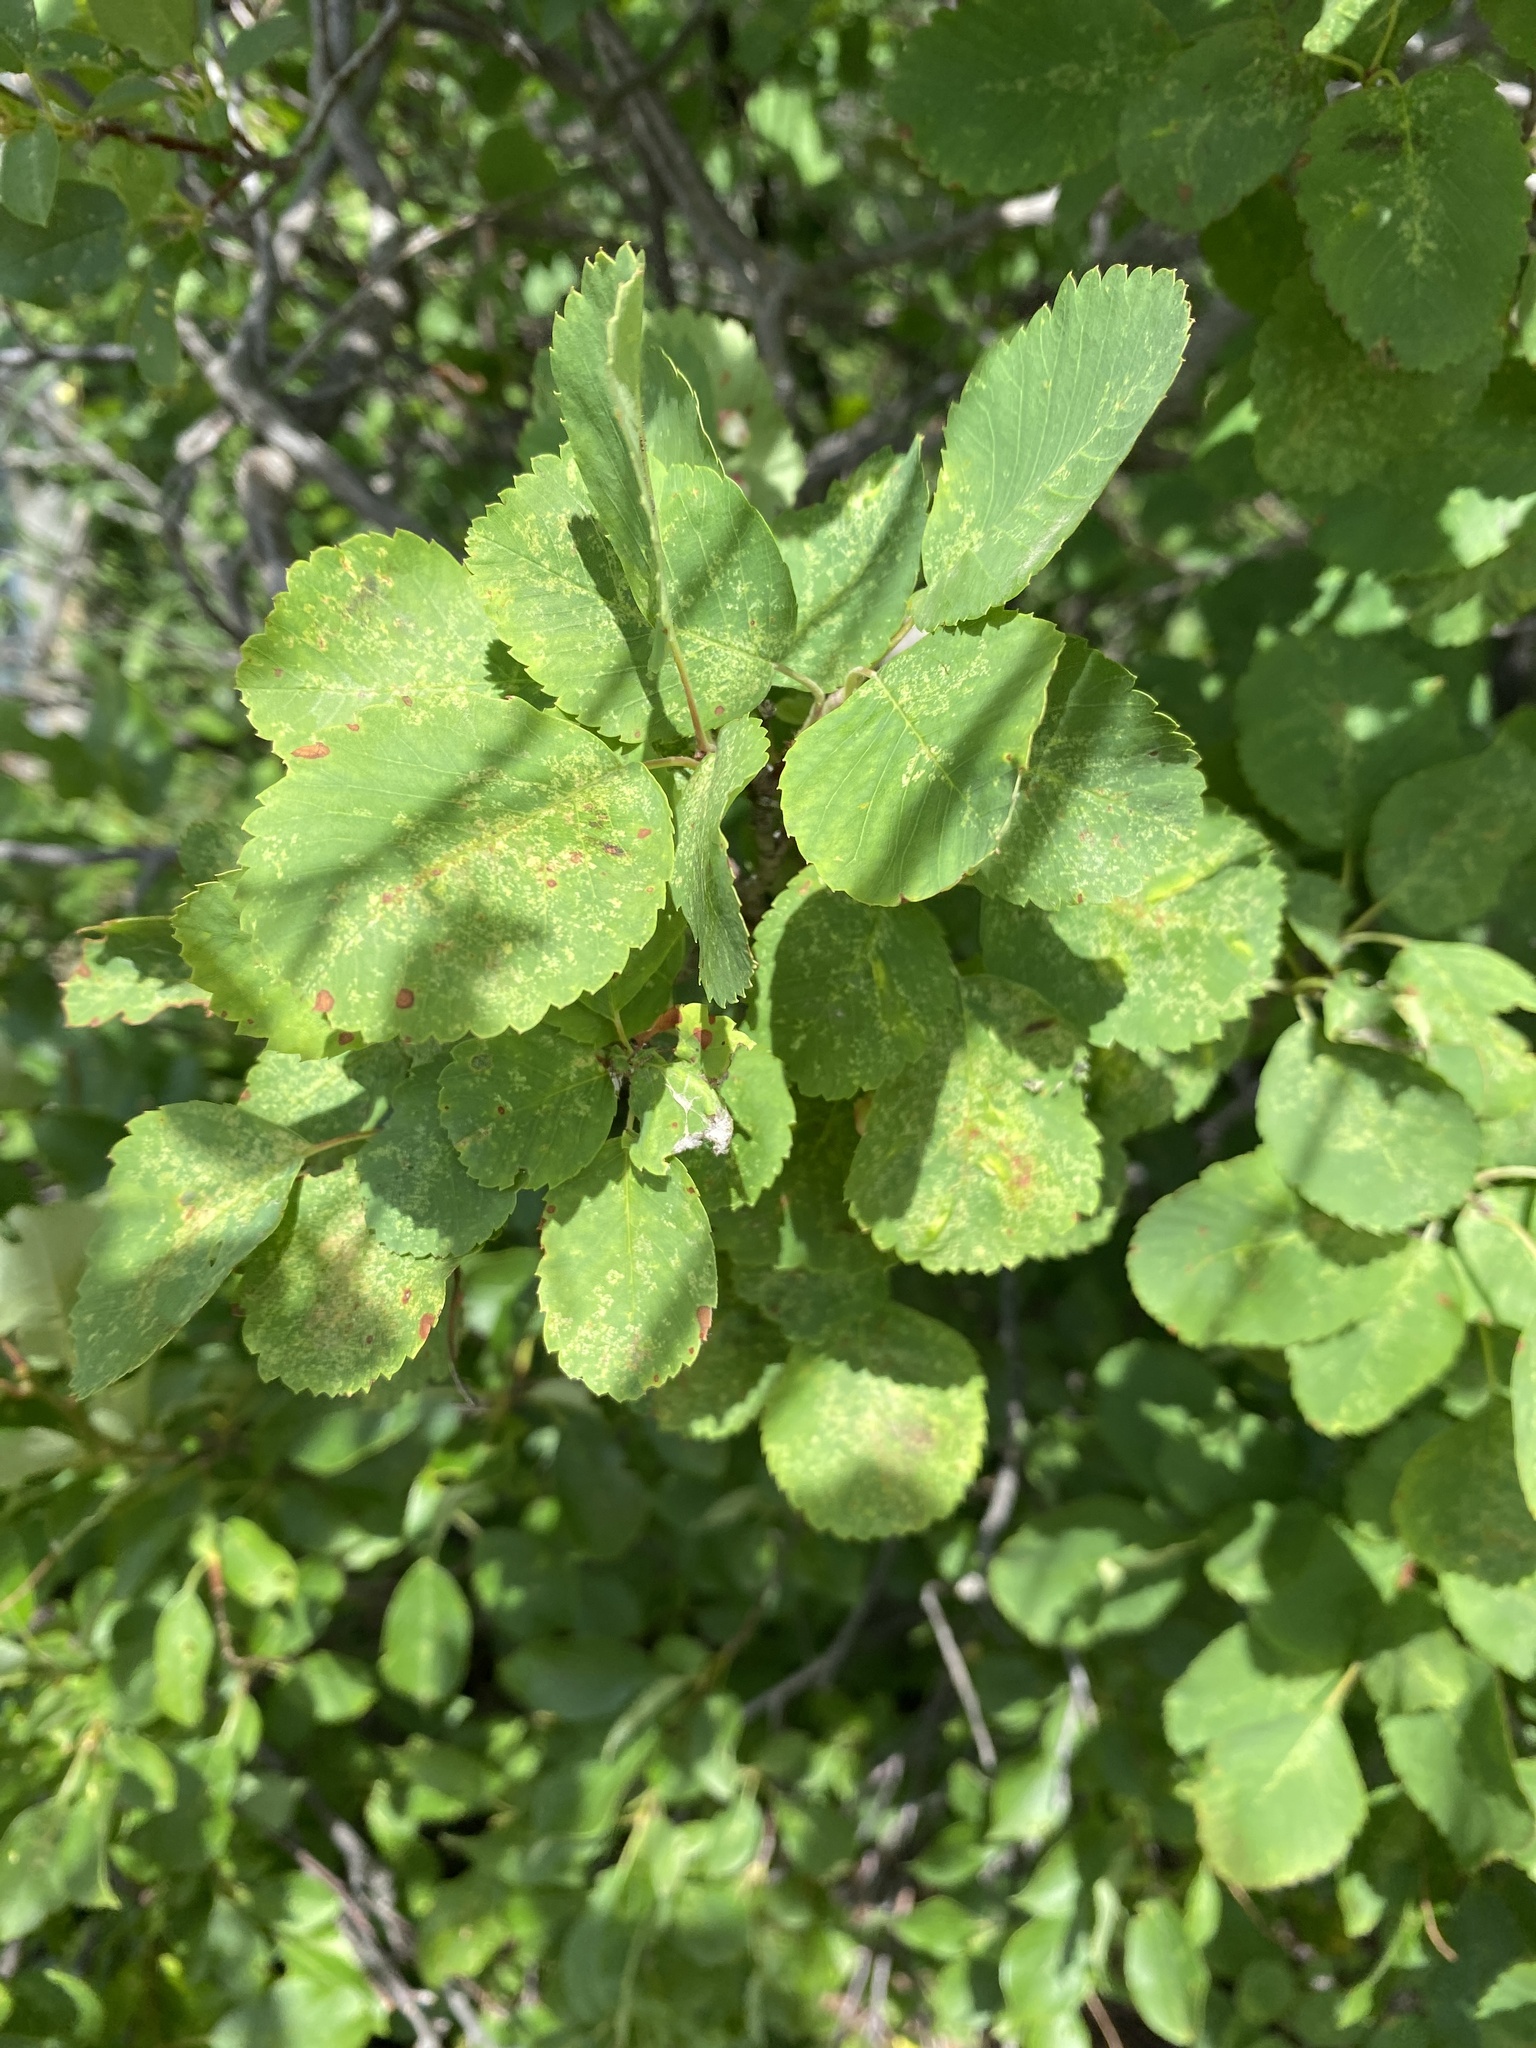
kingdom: Plantae
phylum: Tracheophyta
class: Magnoliopsida
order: Rosales
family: Rosaceae
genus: Amelanchier
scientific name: Amelanchier alnifolia
